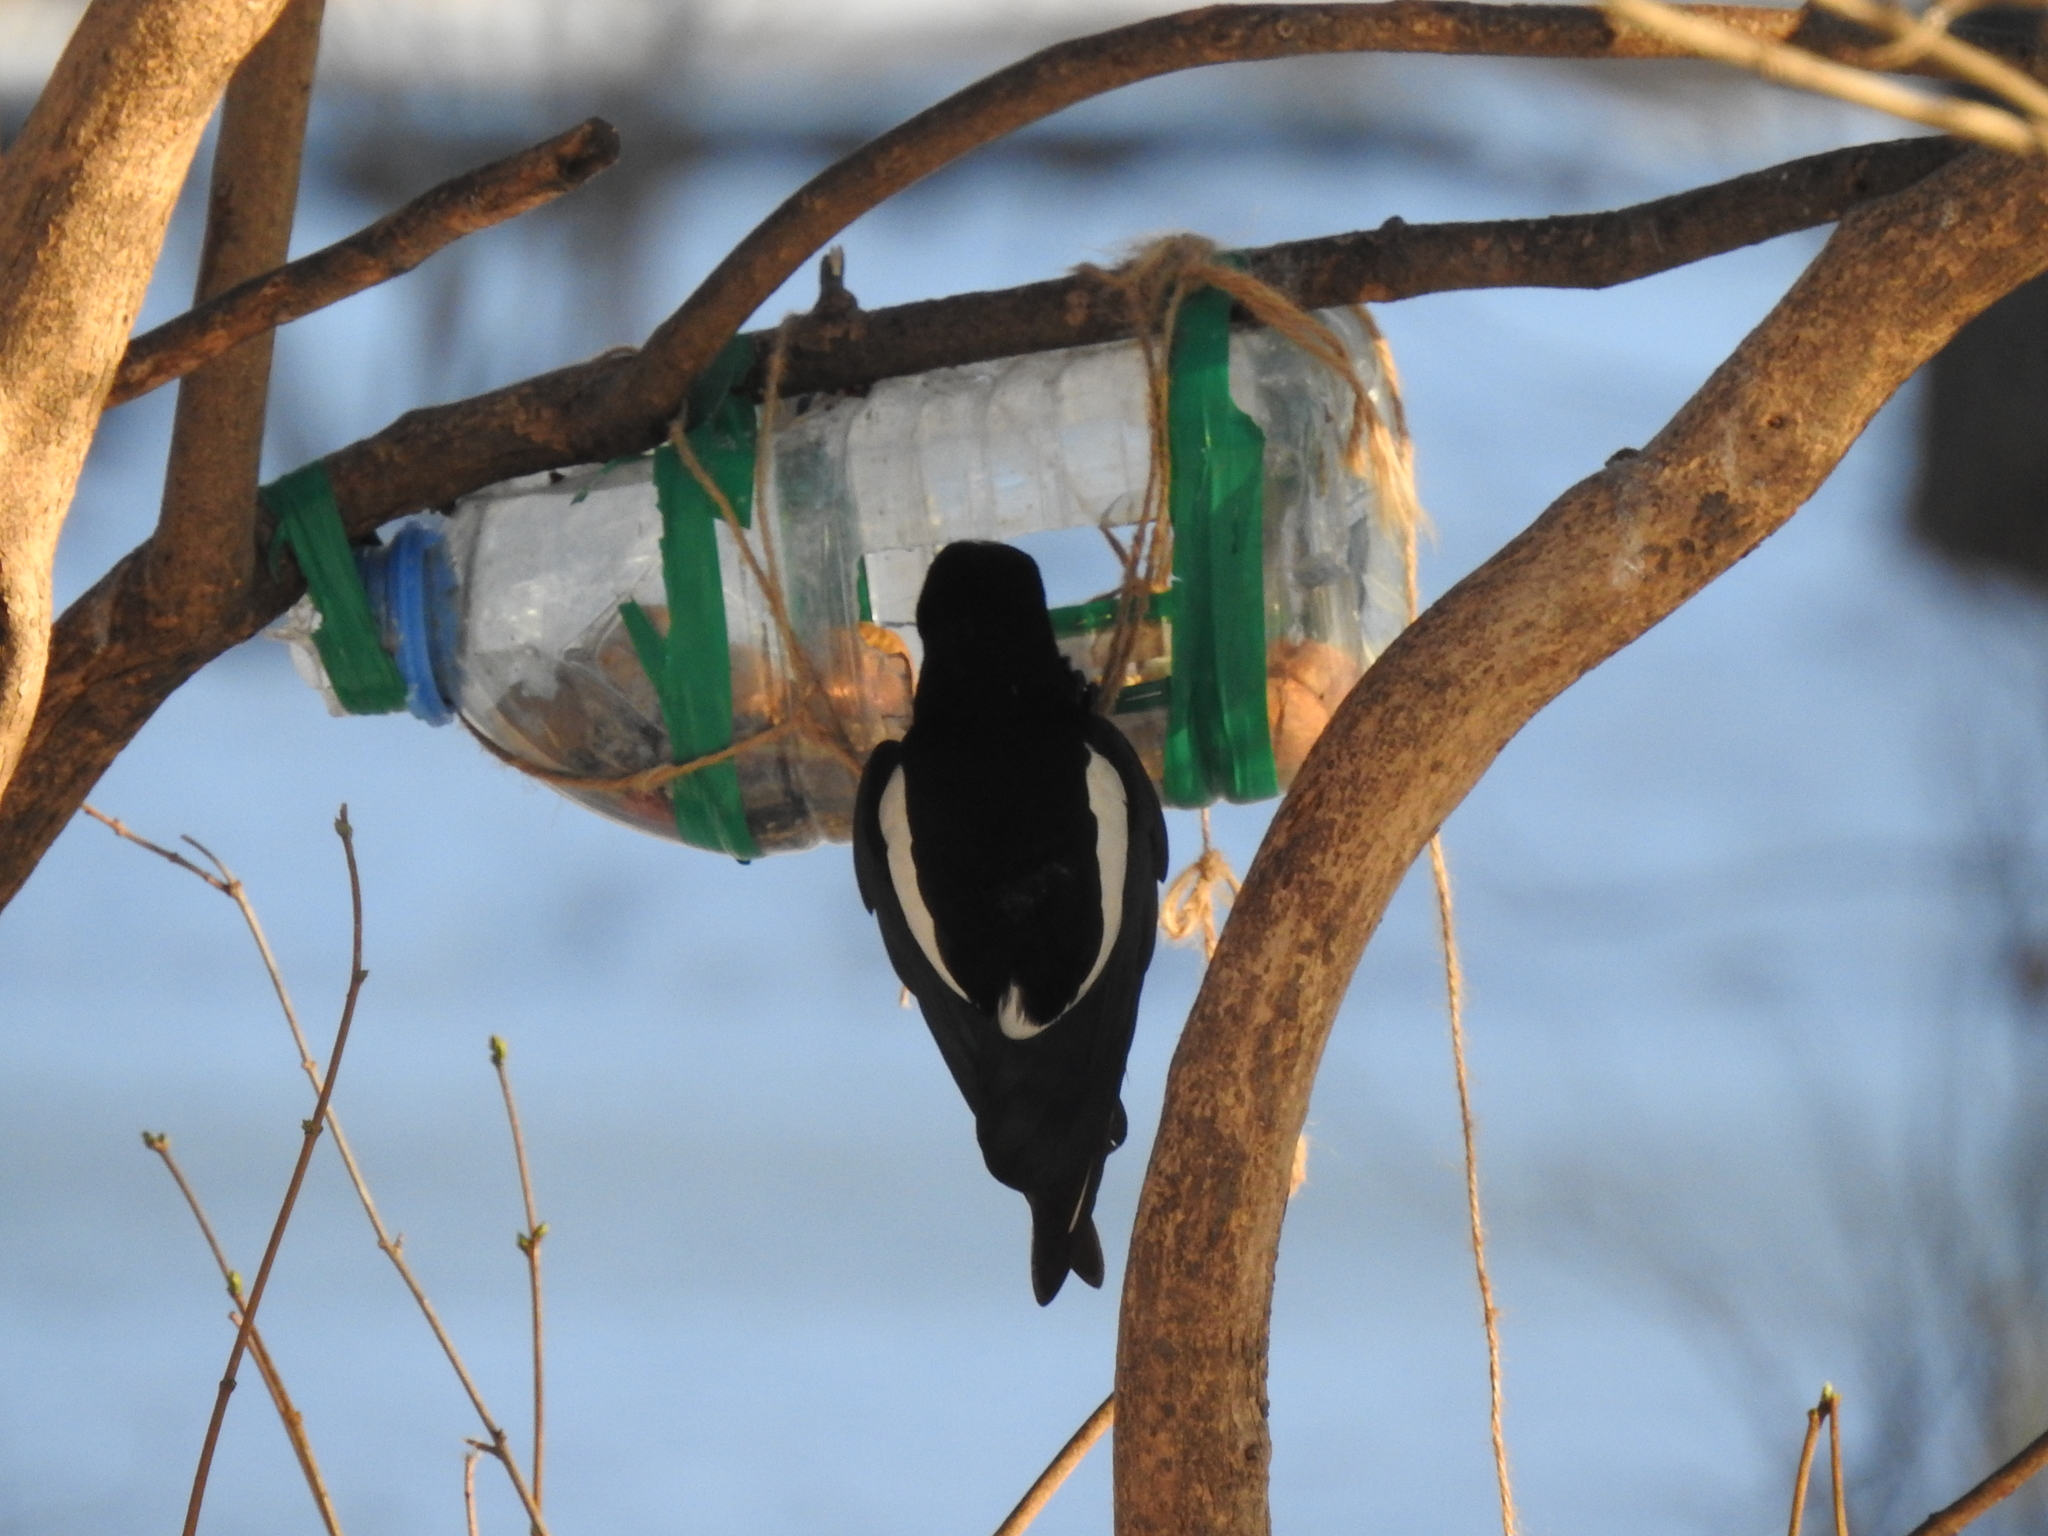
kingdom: Animalia
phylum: Chordata
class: Aves
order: Passeriformes
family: Corvidae
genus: Pica
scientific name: Pica pica
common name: Eurasian magpie
